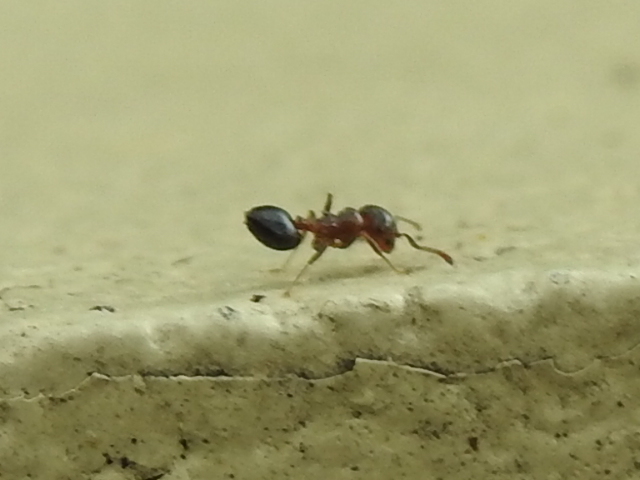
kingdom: Animalia
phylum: Arthropoda
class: Insecta
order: Hymenoptera
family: Formicidae
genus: Crematogaster
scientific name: Crematogaster laeviuscula
